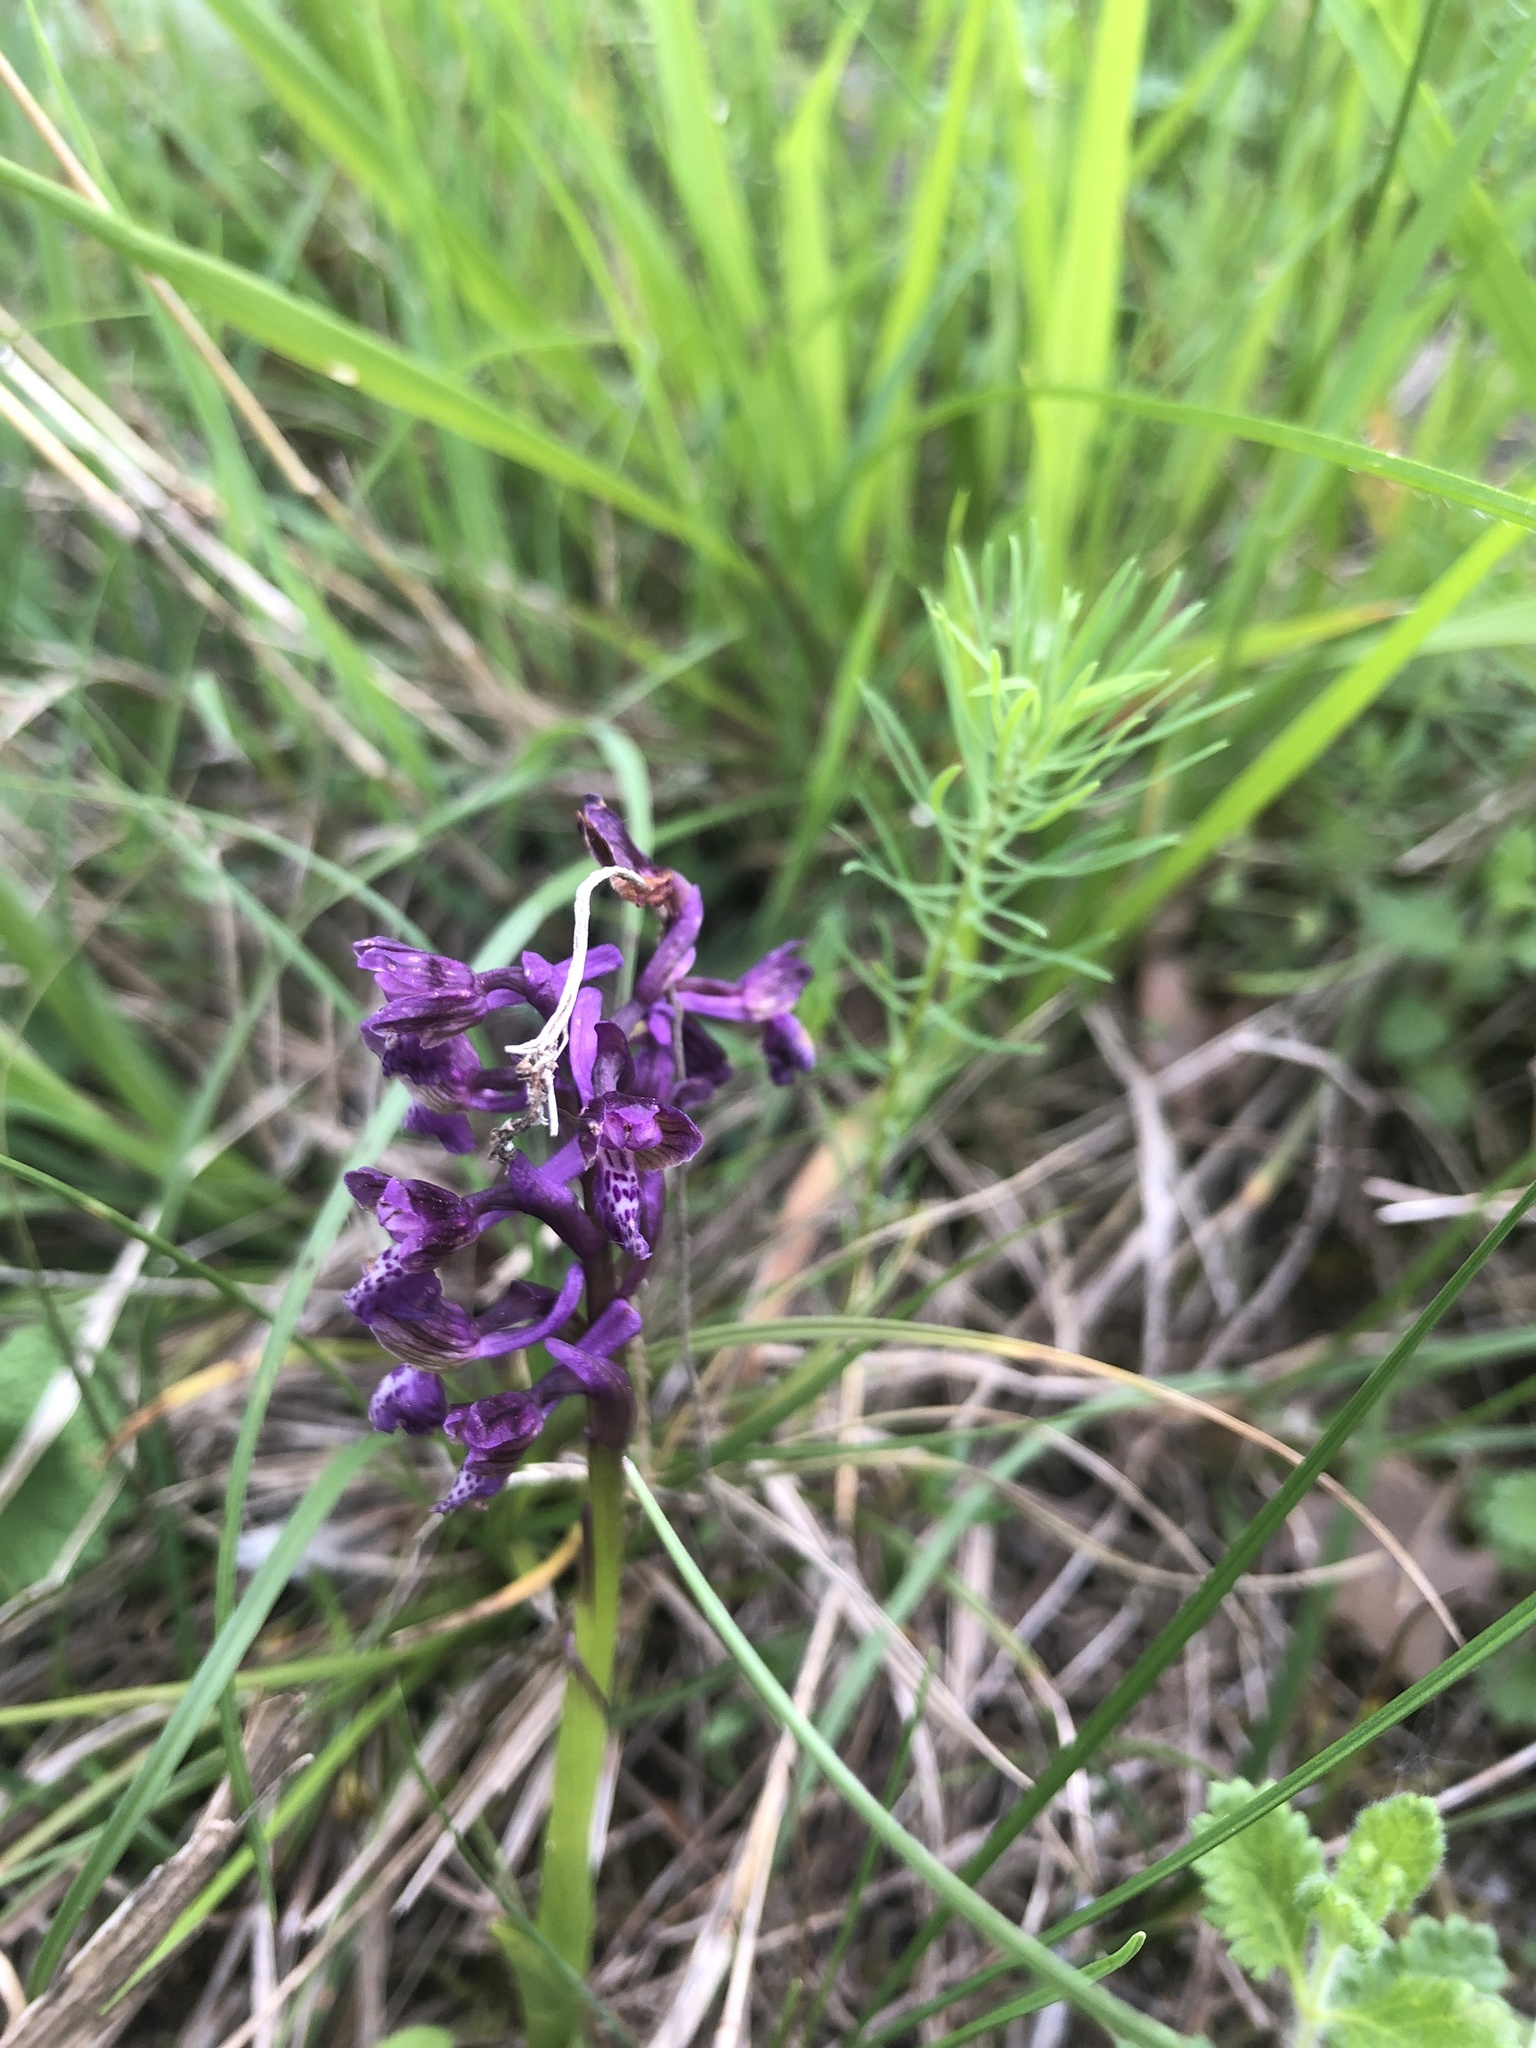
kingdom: Plantae
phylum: Tracheophyta
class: Liliopsida
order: Asparagales
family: Orchidaceae
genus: Anacamptis
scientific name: Anacamptis morio
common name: Green-winged orchid
